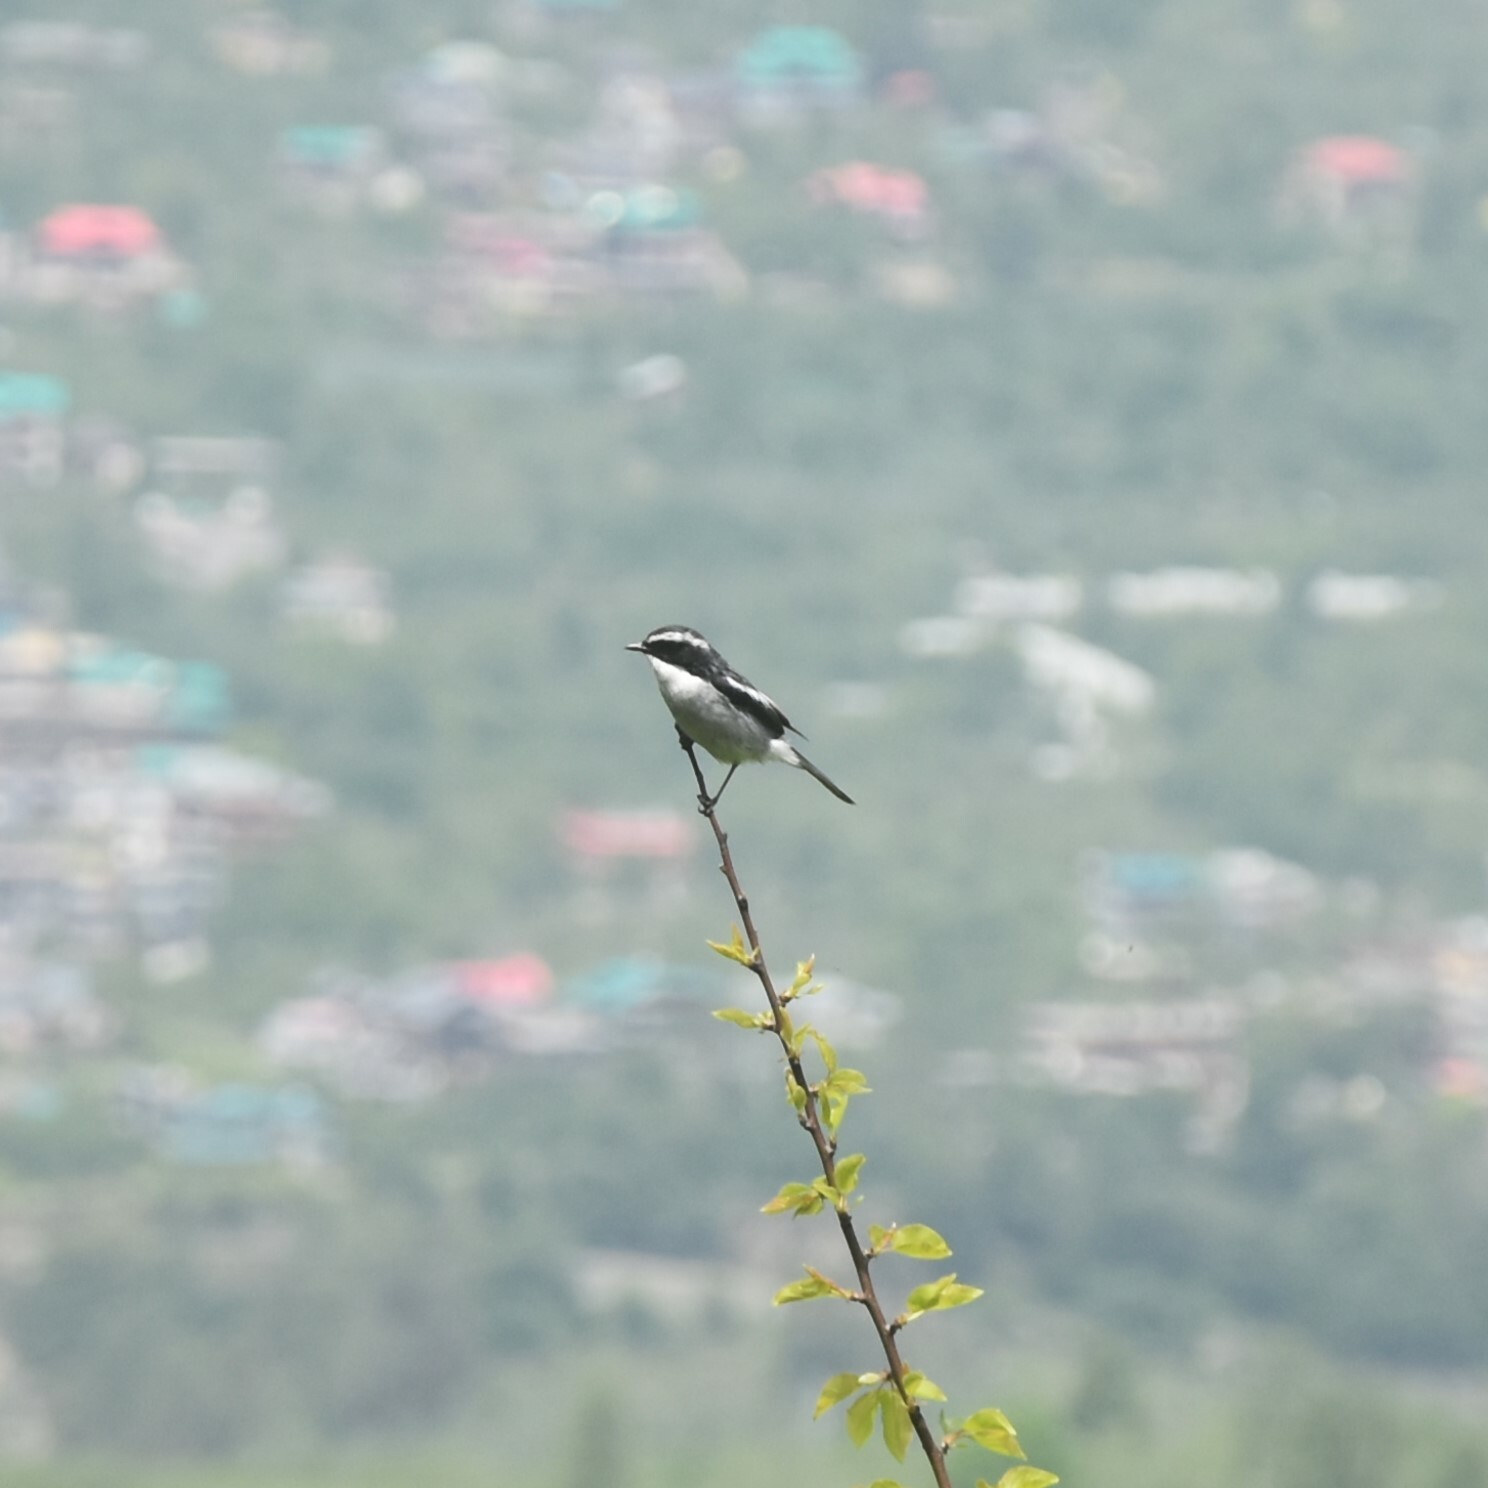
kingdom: Animalia
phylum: Chordata
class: Aves
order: Passeriformes
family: Muscicapidae
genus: Saxicola
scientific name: Saxicola ferreus
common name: Grey bush chat
